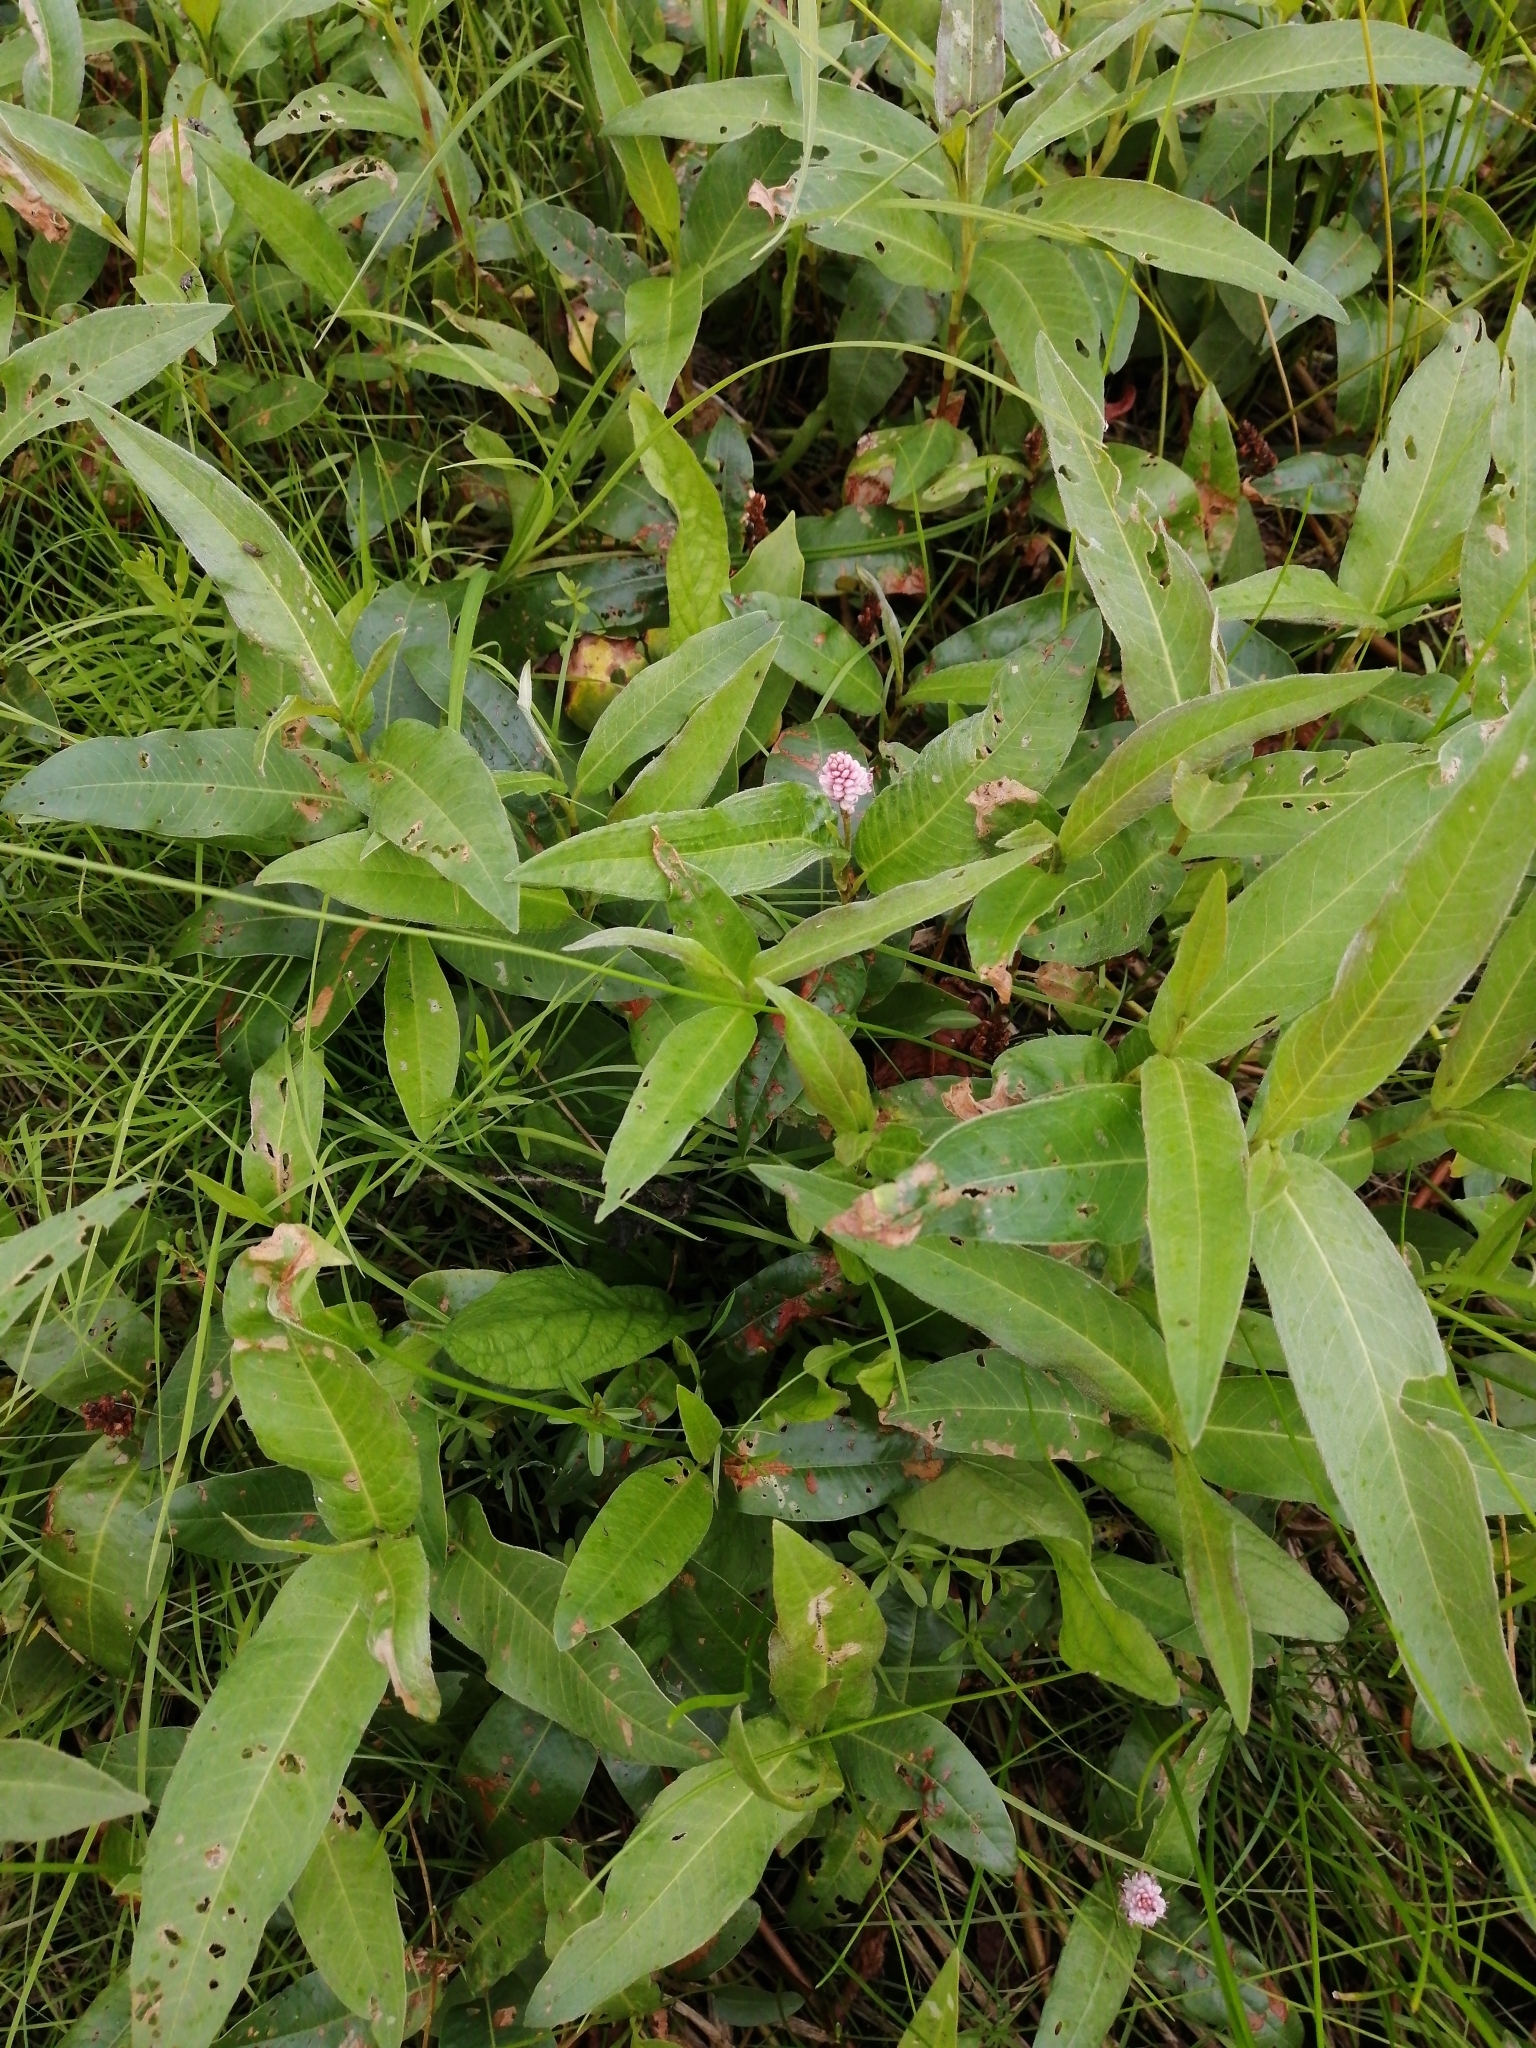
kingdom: Plantae
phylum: Tracheophyta
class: Magnoliopsida
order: Caryophyllales
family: Polygonaceae
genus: Persicaria
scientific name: Persicaria amphibia
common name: Amphibious bistort
